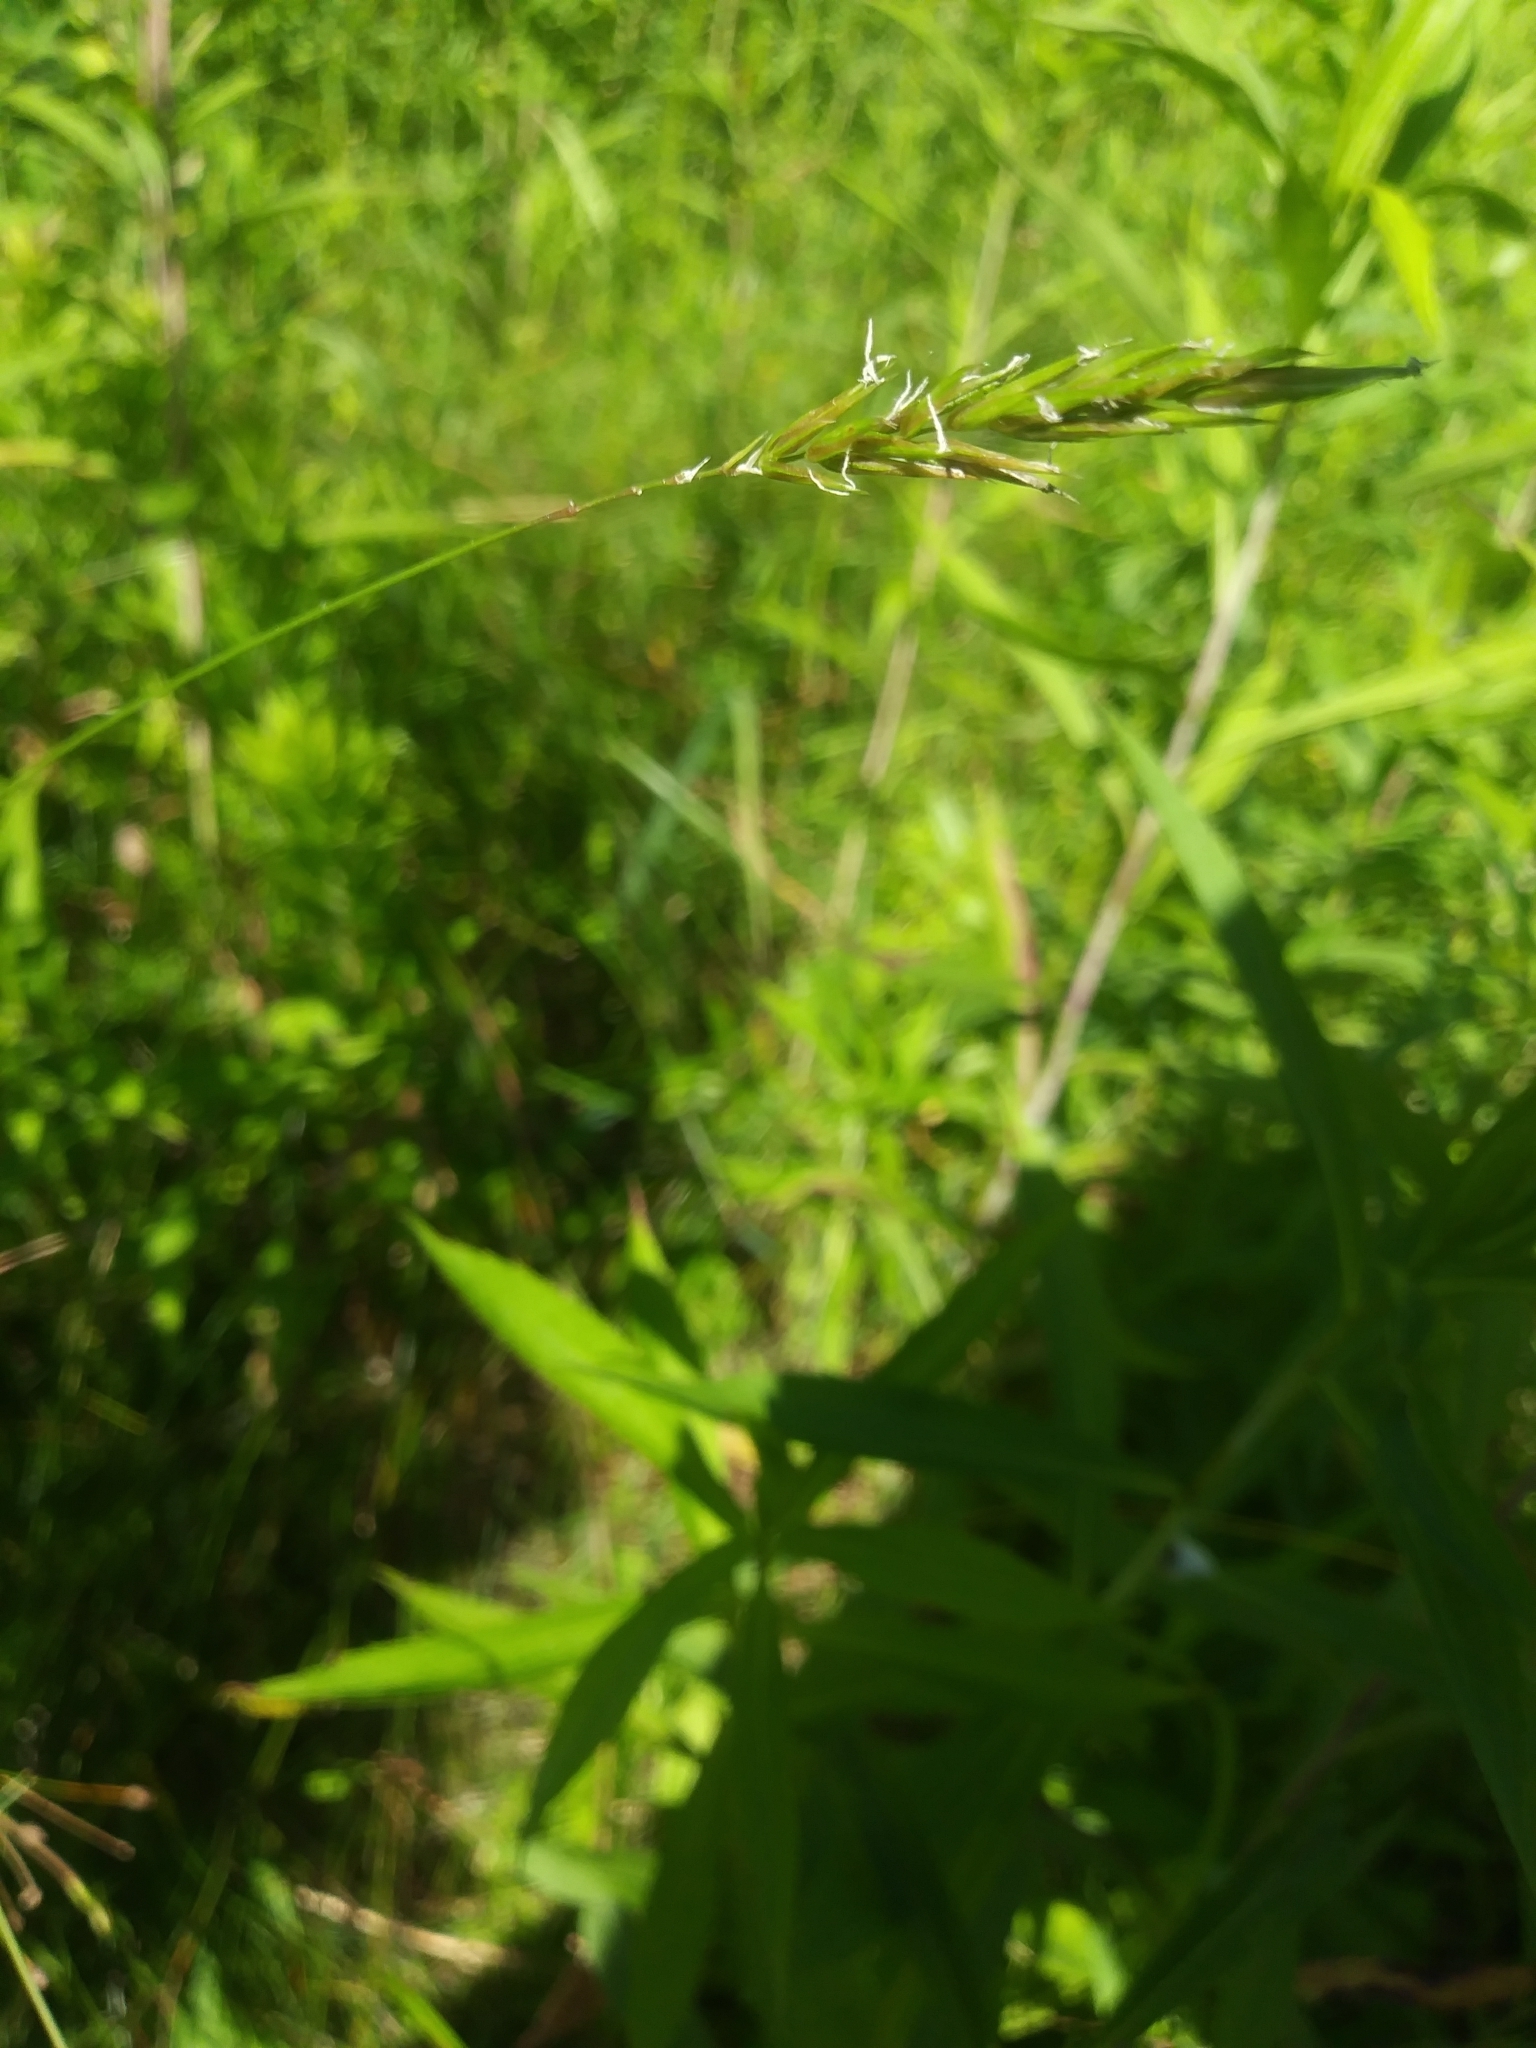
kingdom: Plantae
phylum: Tracheophyta
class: Liliopsida
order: Poales
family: Poaceae
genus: Anthoxanthum
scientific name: Anthoxanthum odoratum
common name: Sweet vernalgrass
